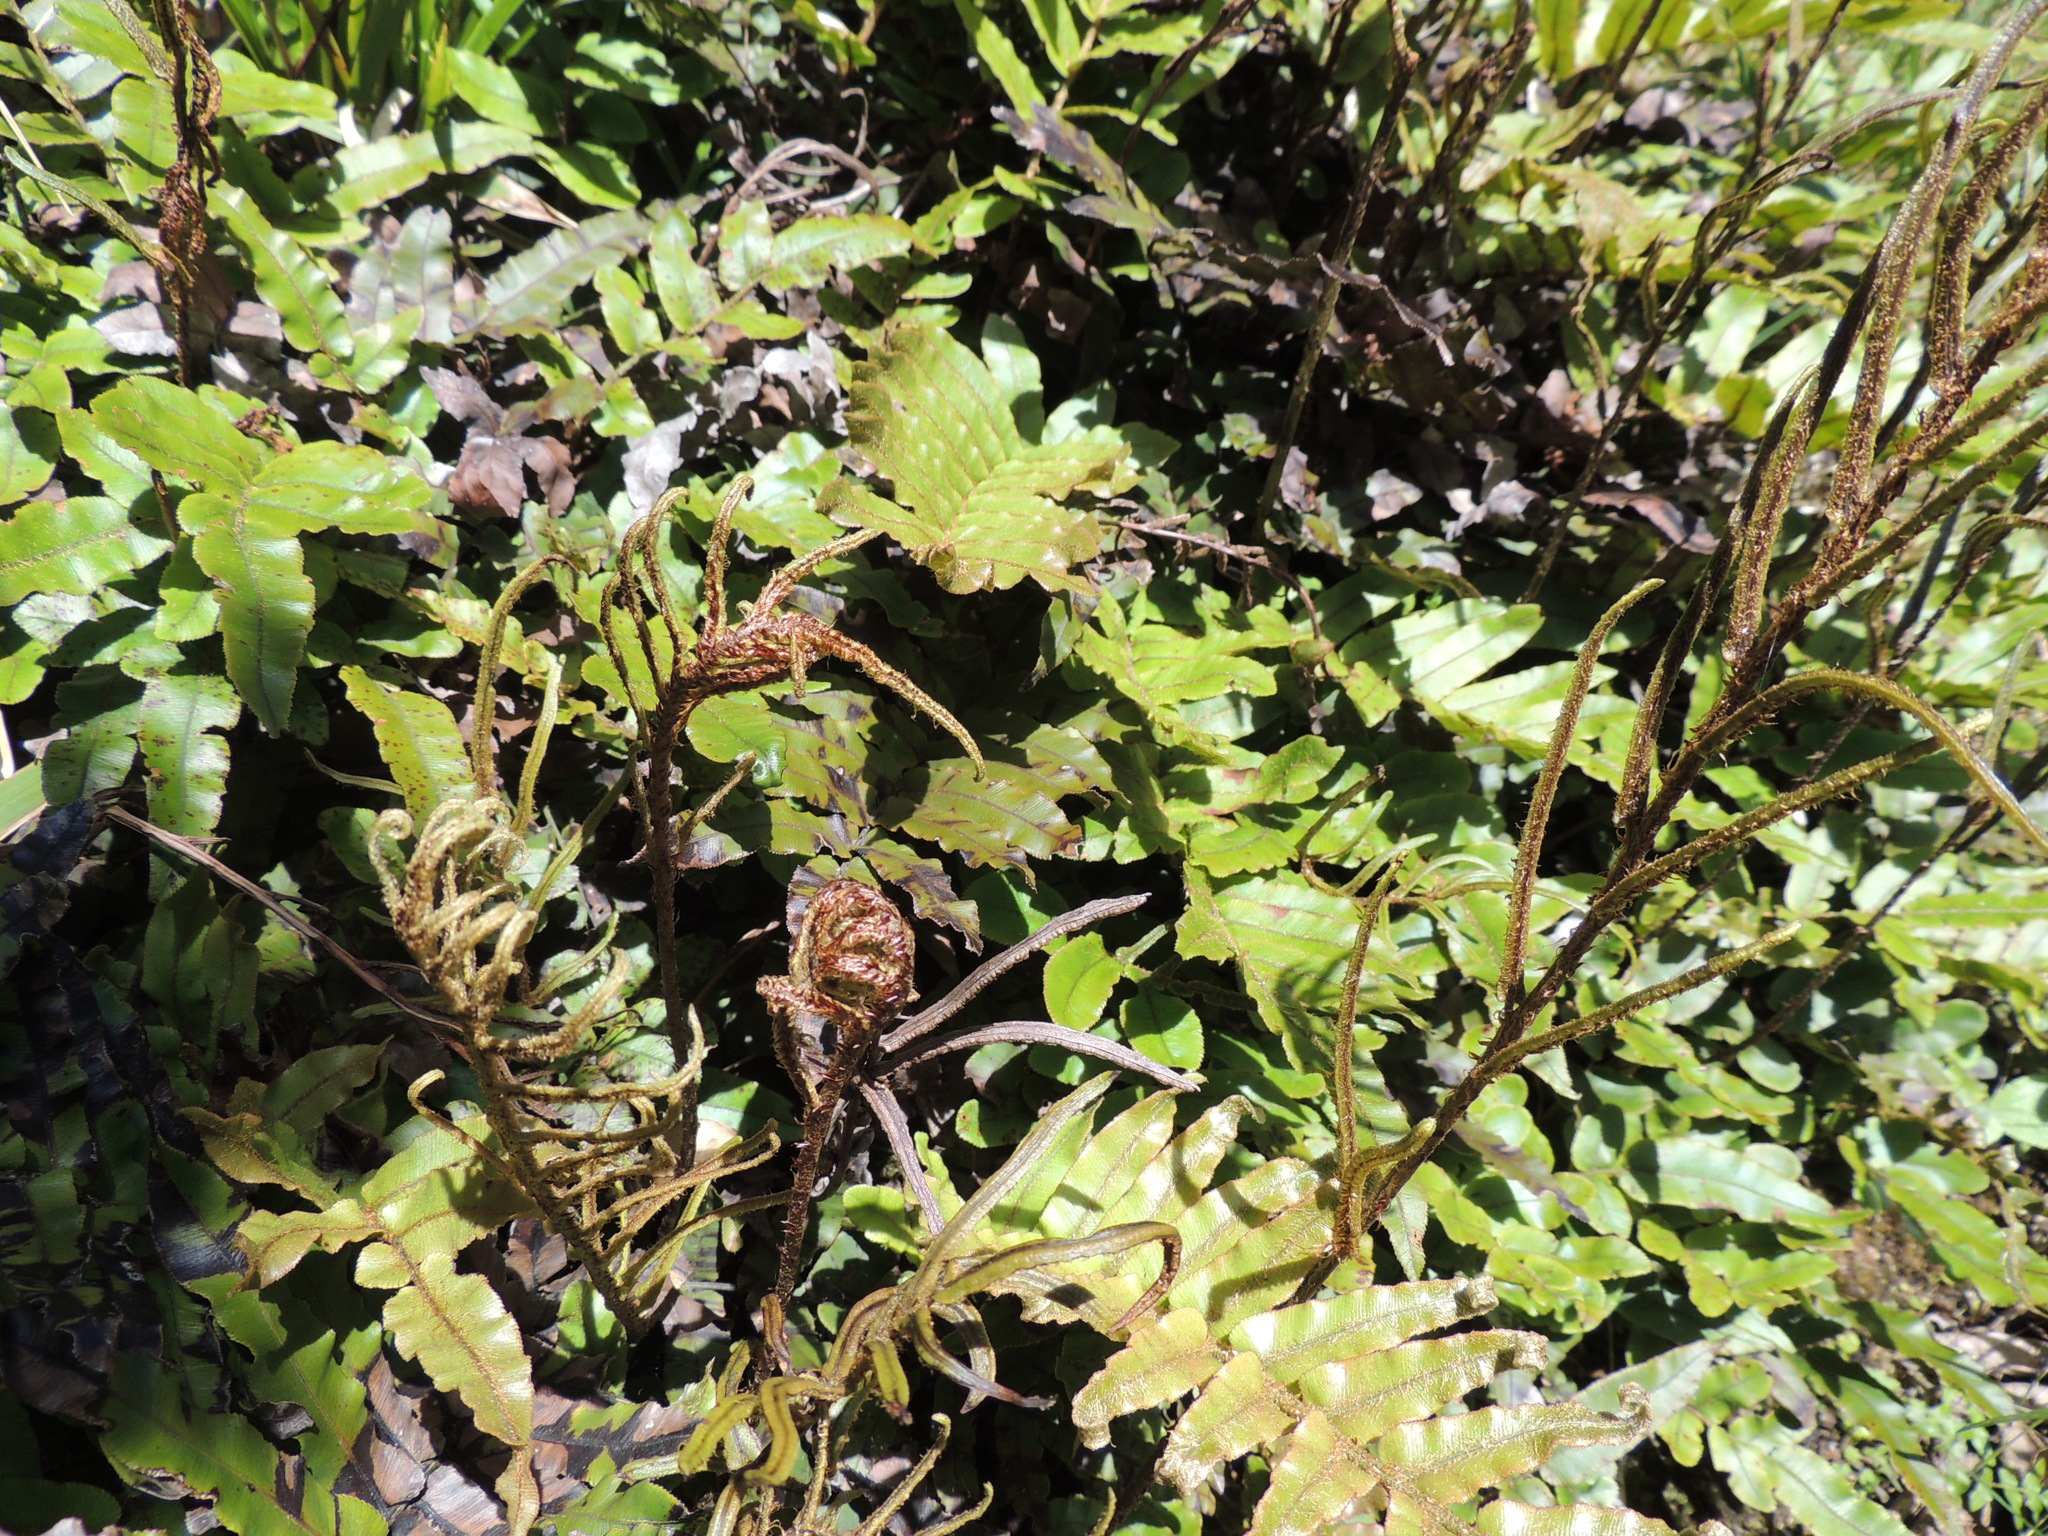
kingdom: Plantae
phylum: Tracheophyta
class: Polypodiopsida
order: Polypodiales
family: Blechnaceae
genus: Parablechnum
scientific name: Parablechnum procerum
